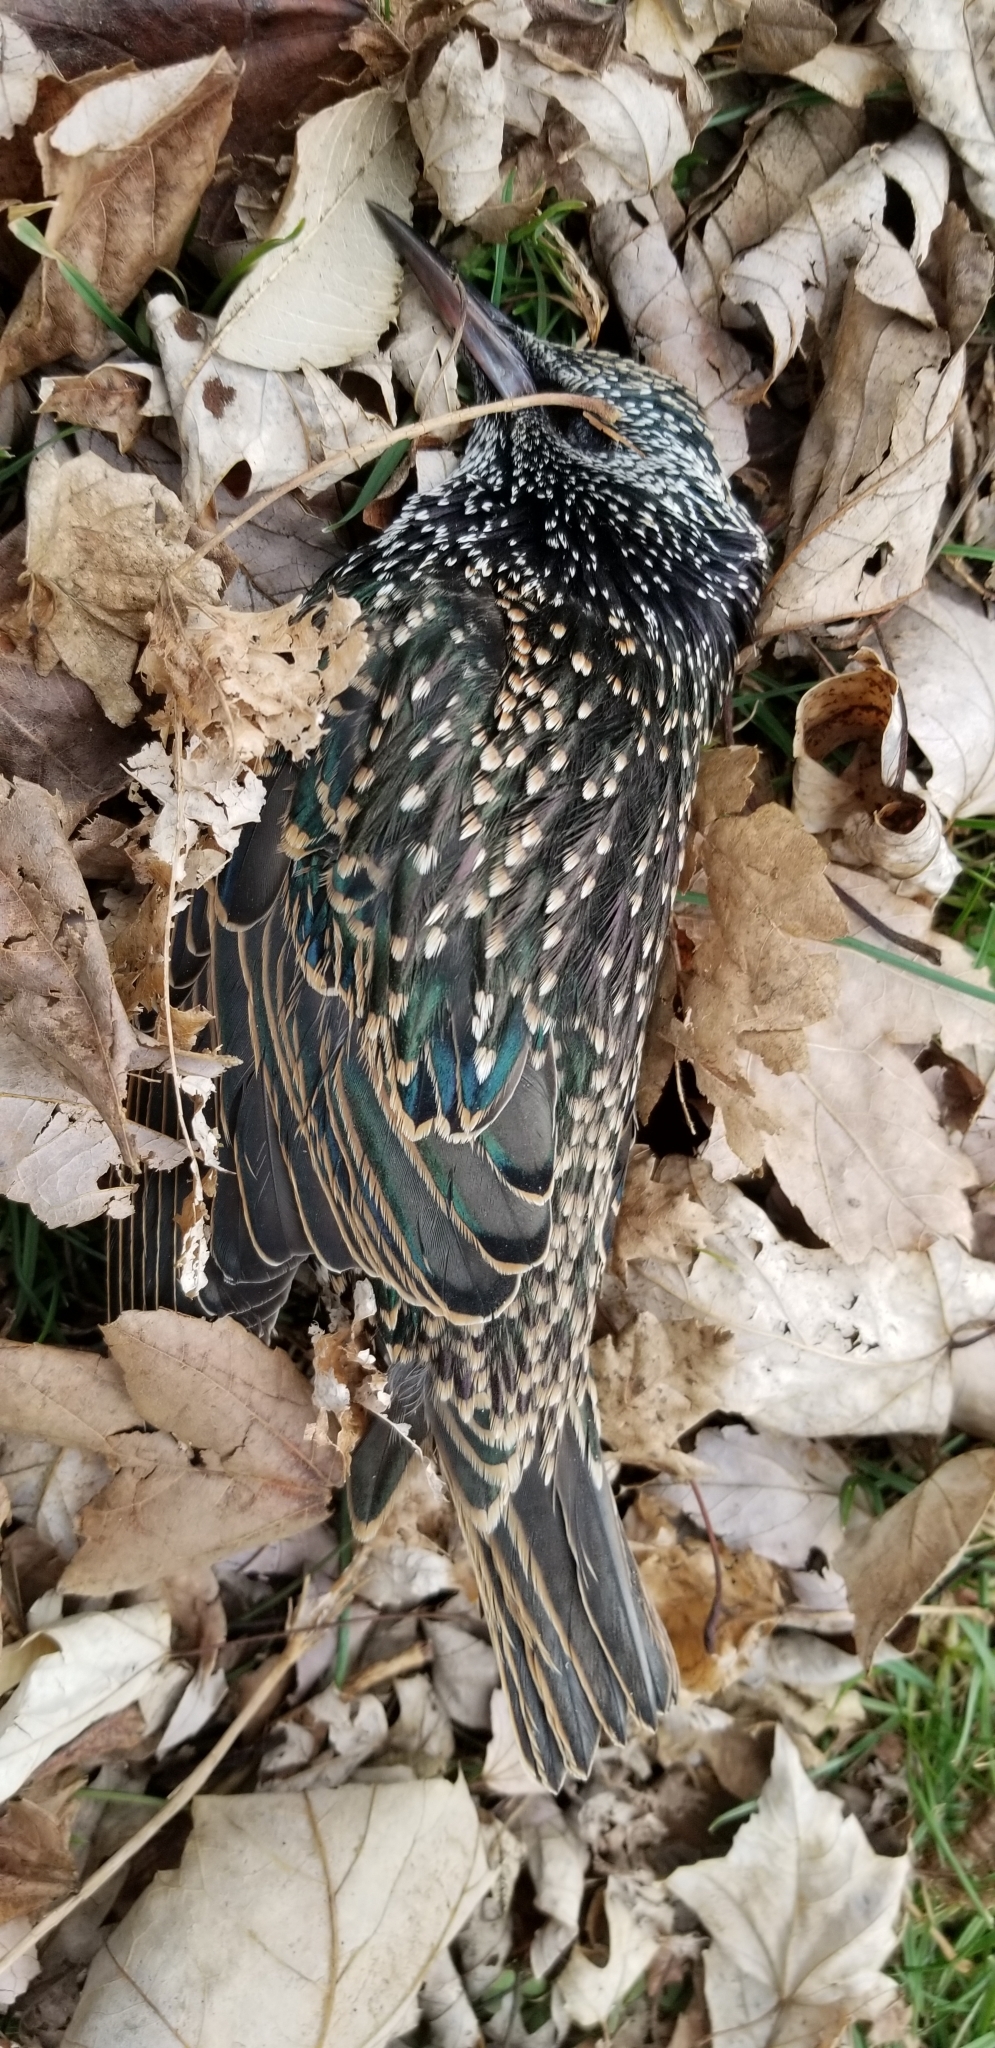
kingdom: Animalia
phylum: Chordata
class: Aves
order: Passeriformes
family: Sturnidae
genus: Sturnus
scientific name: Sturnus vulgaris
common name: Common starling
